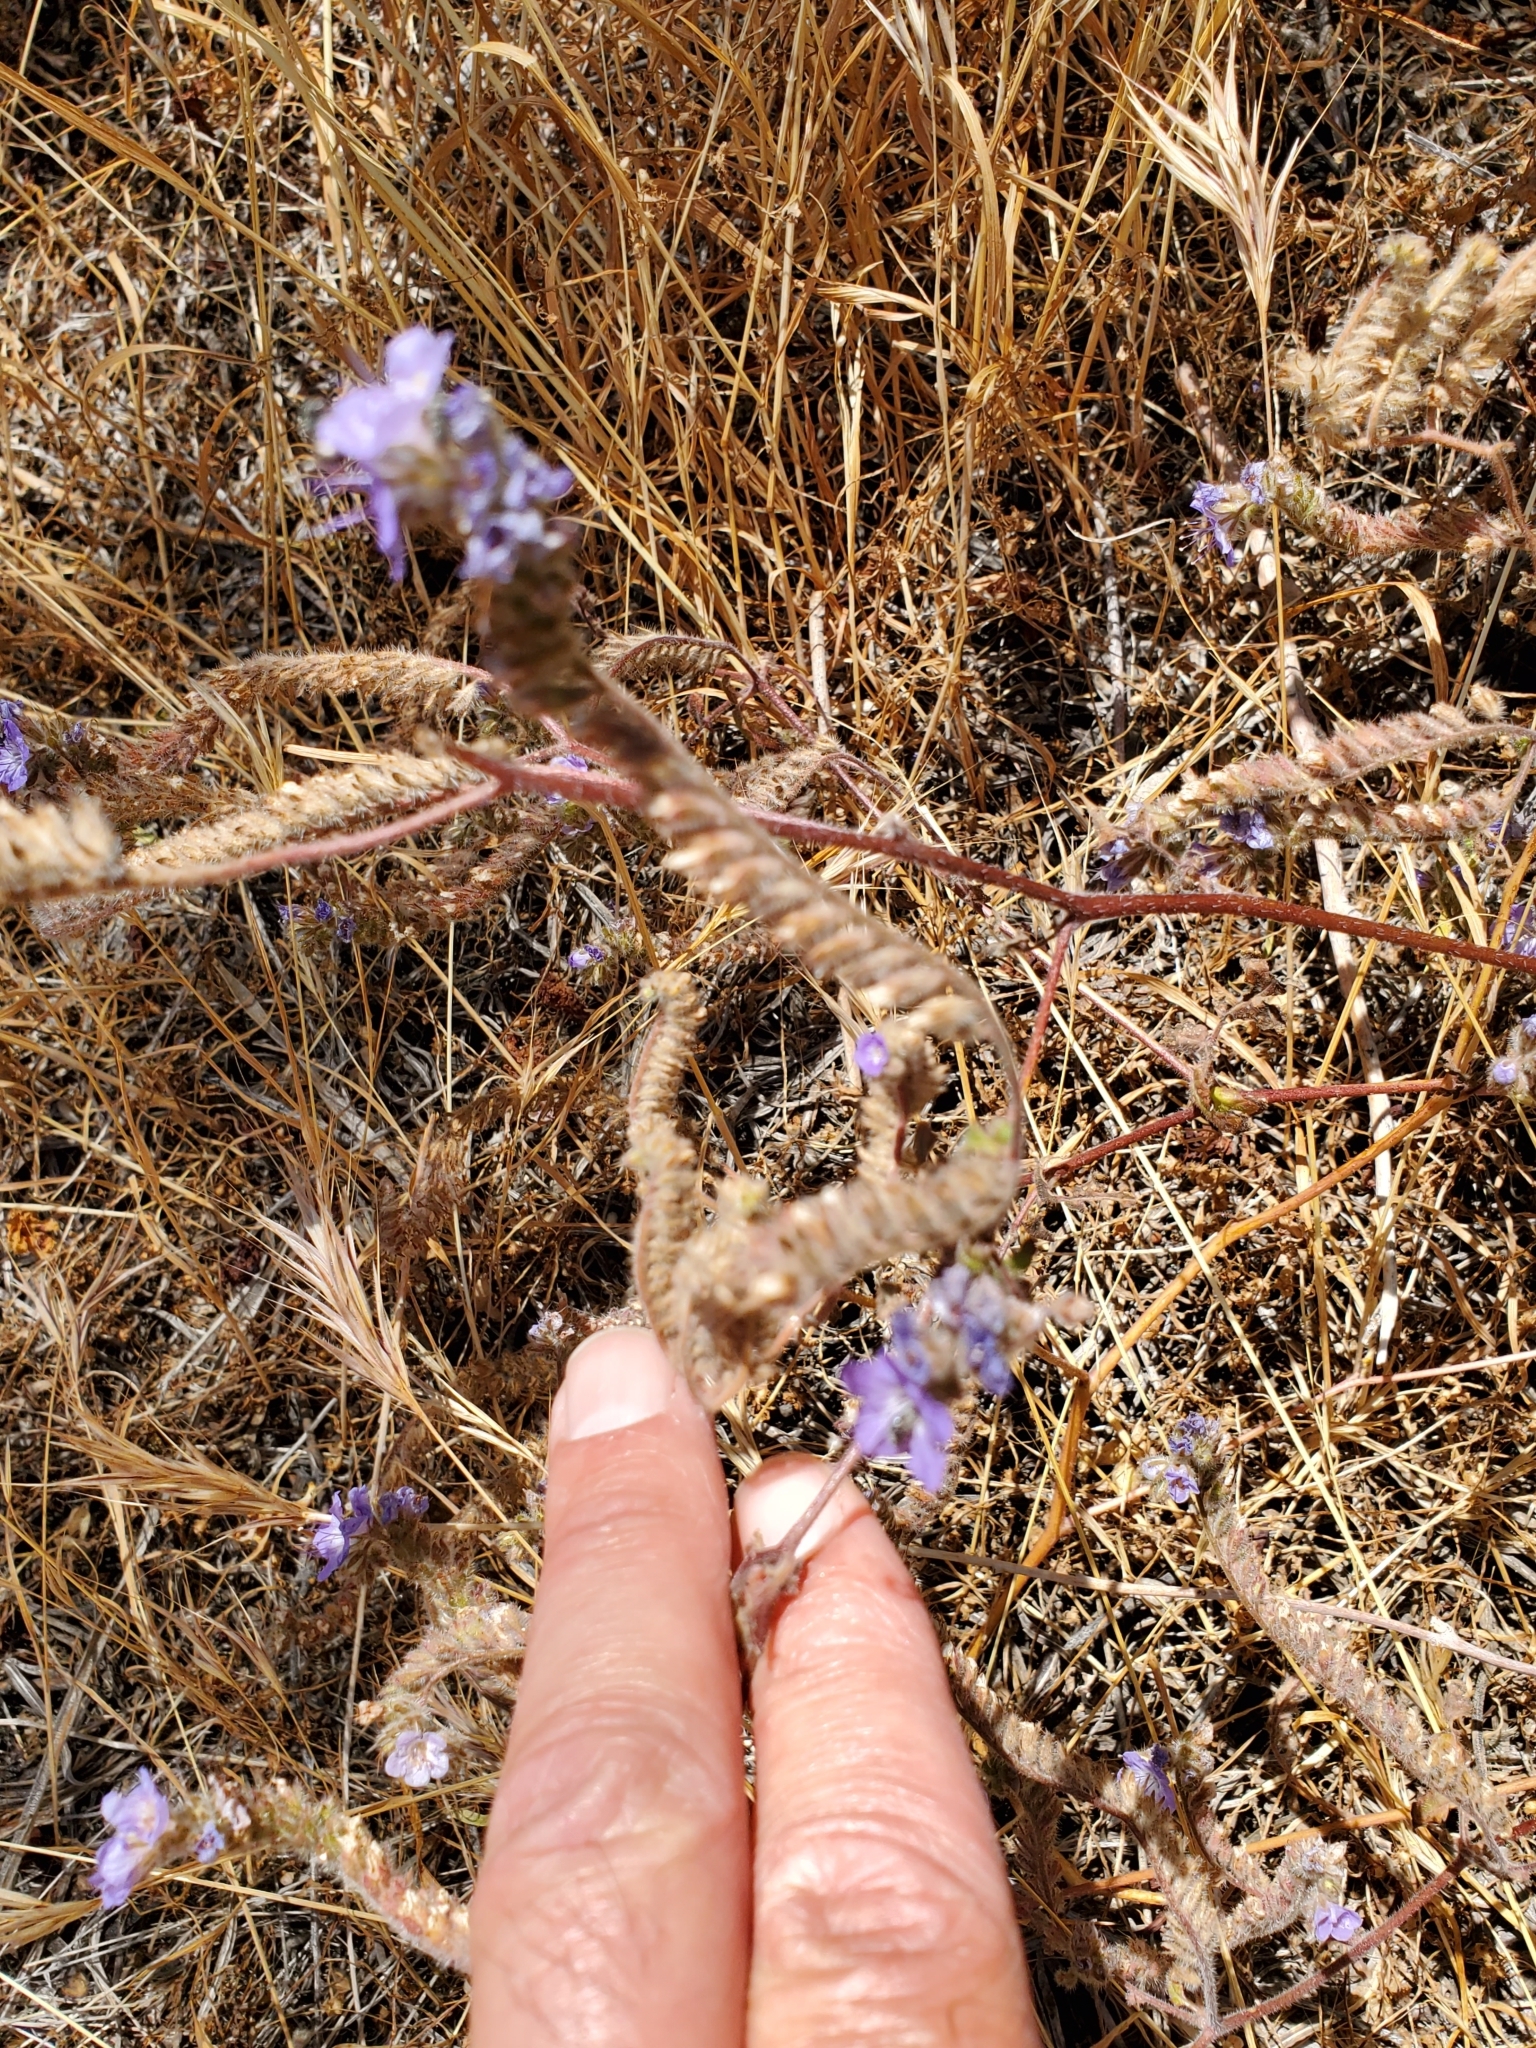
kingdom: Plantae
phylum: Tracheophyta
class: Magnoliopsida
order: Boraginales
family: Hydrophyllaceae
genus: Phacelia
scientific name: Phacelia distans
